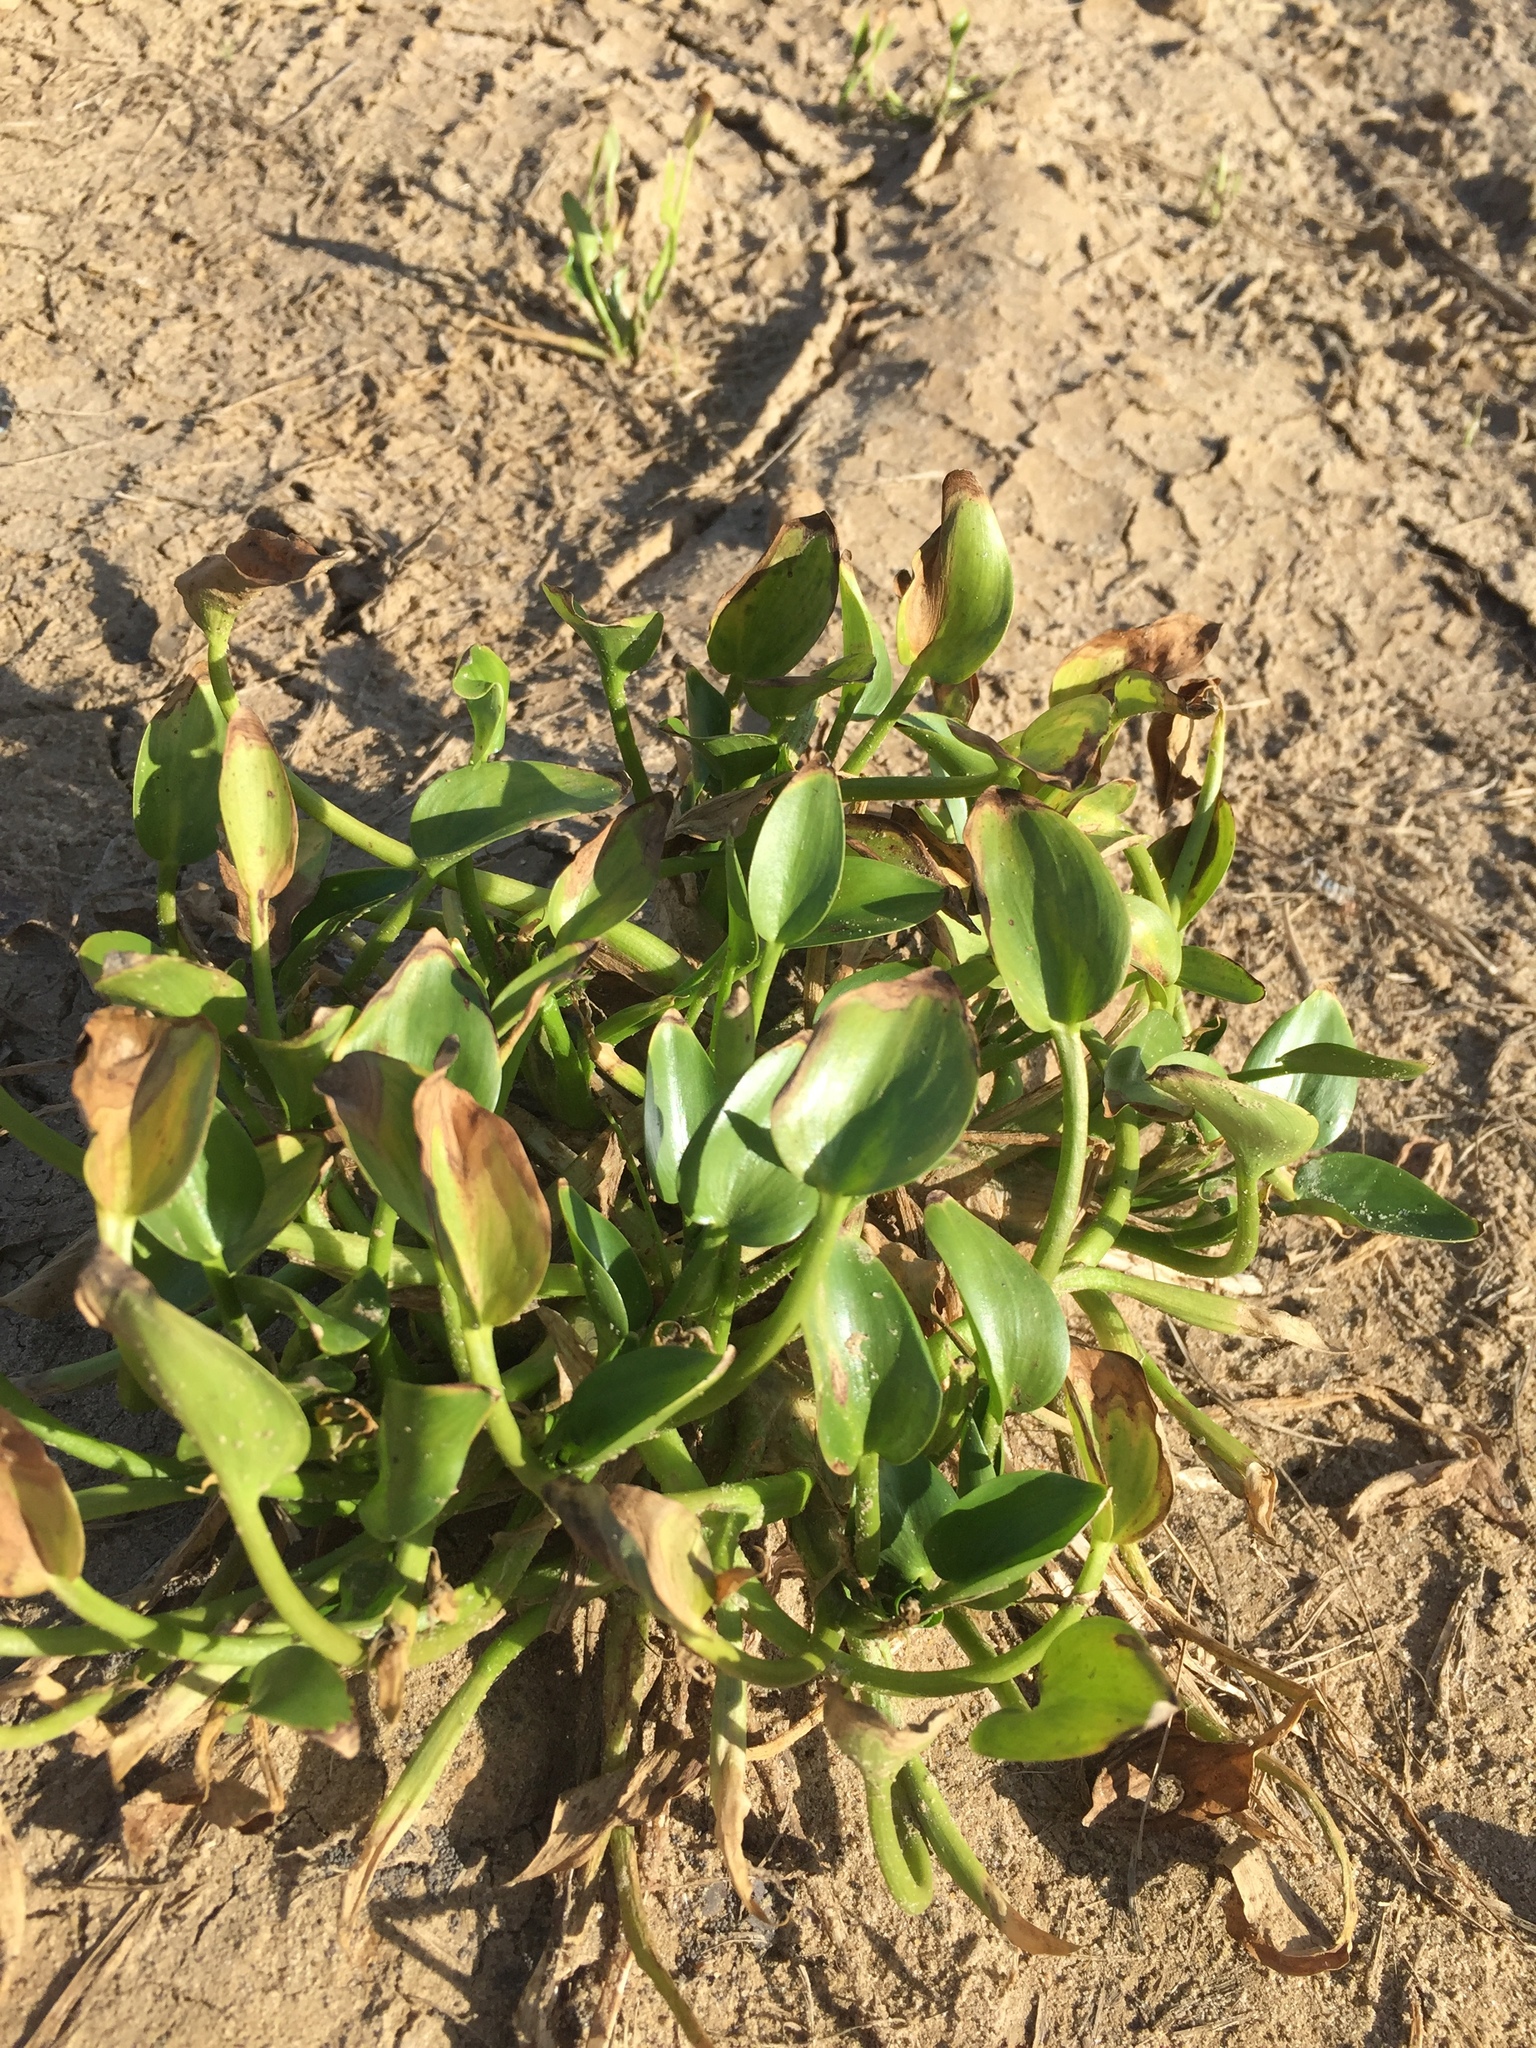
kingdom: Plantae
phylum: Tracheophyta
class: Liliopsida
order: Commelinales
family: Pontederiaceae
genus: Pontederia
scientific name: Pontederia crassipes
